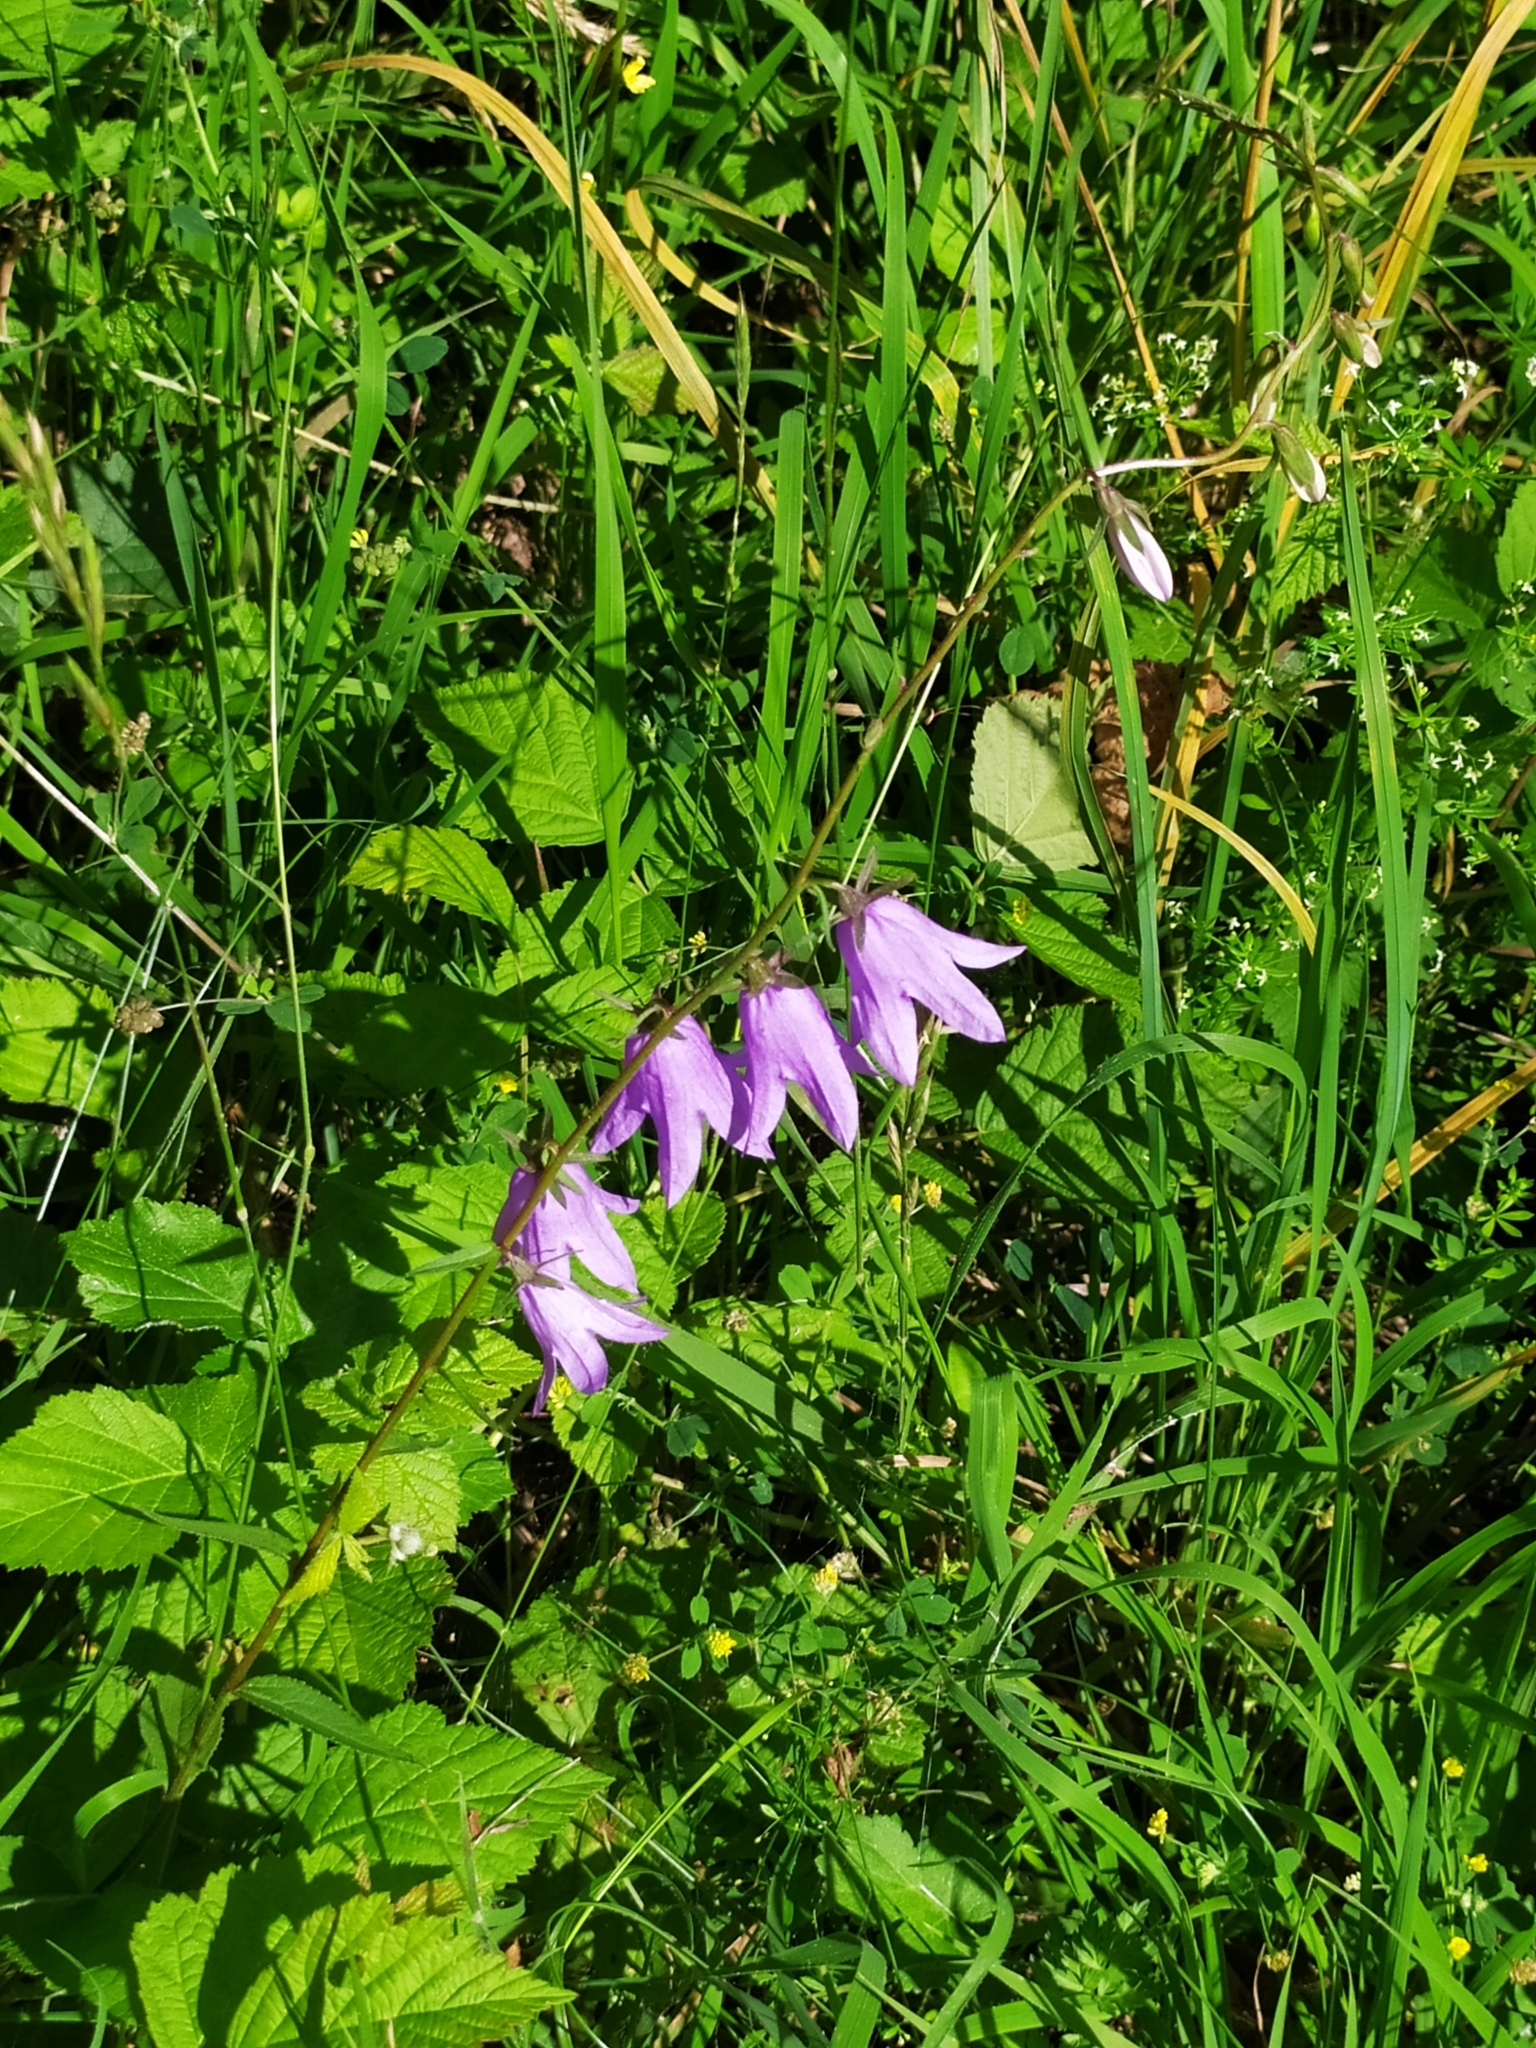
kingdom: Plantae
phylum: Tracheophyta
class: Magnoliopsida
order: Asterales
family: Campanulaceae
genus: Campanula
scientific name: Campanula rapunculoides
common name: Creeping bellflower
